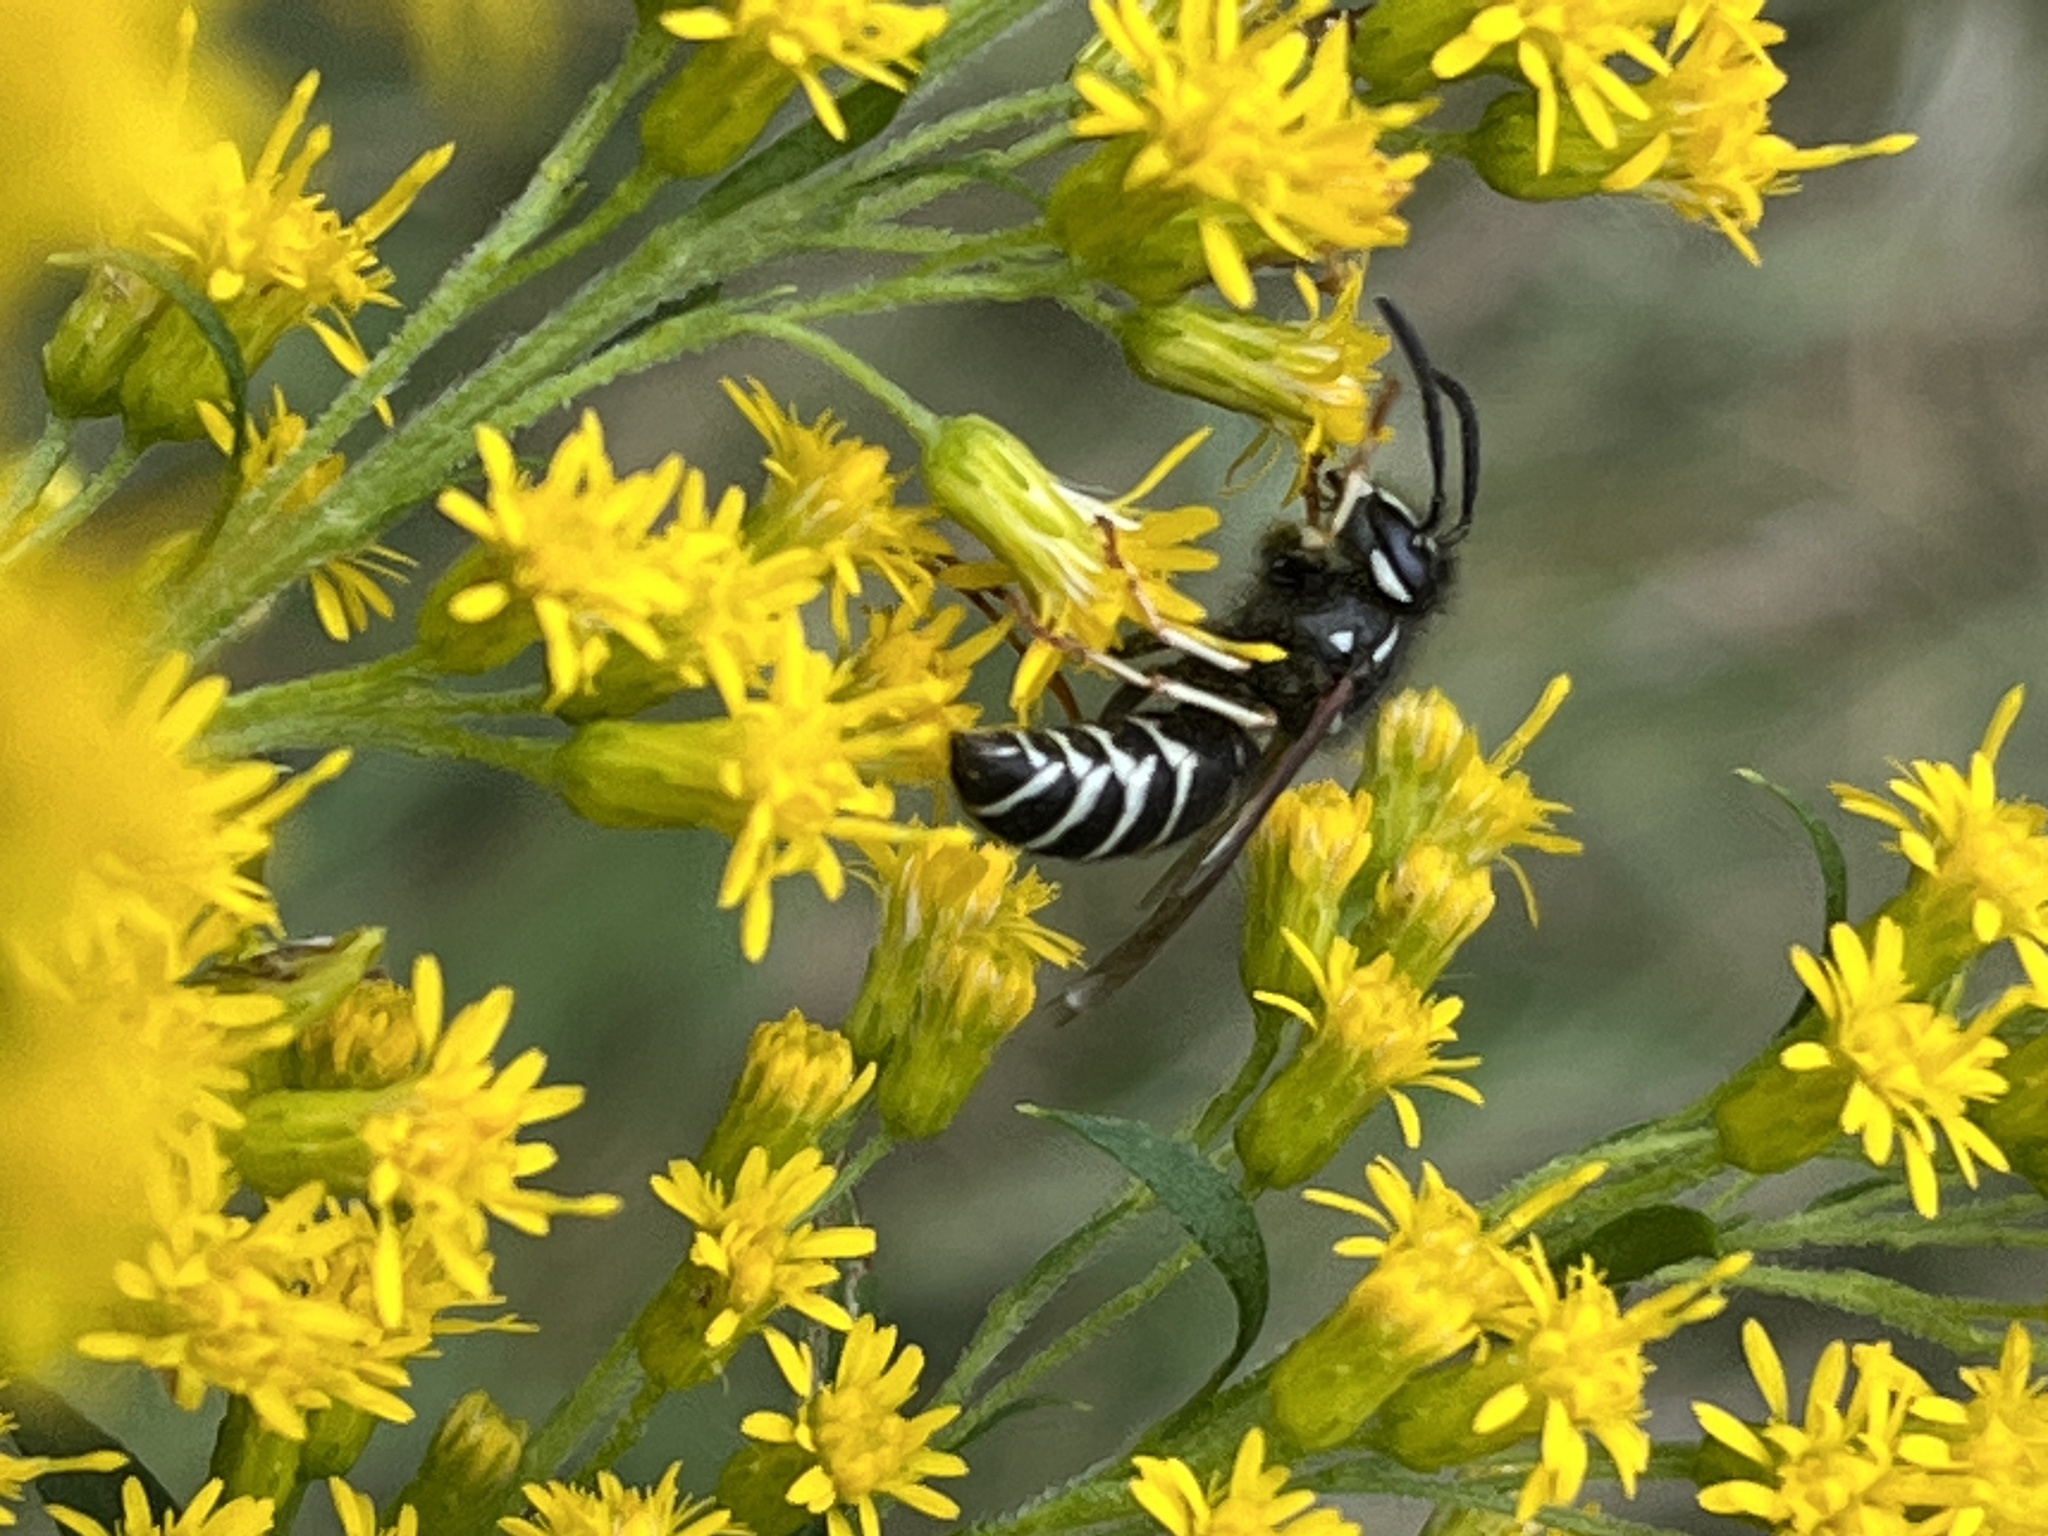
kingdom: Animalia
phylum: Arthropoda
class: Insecta
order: Hymenoptera
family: Vespidae
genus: Vespula
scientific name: Vespula consobrina
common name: Blackjacket
